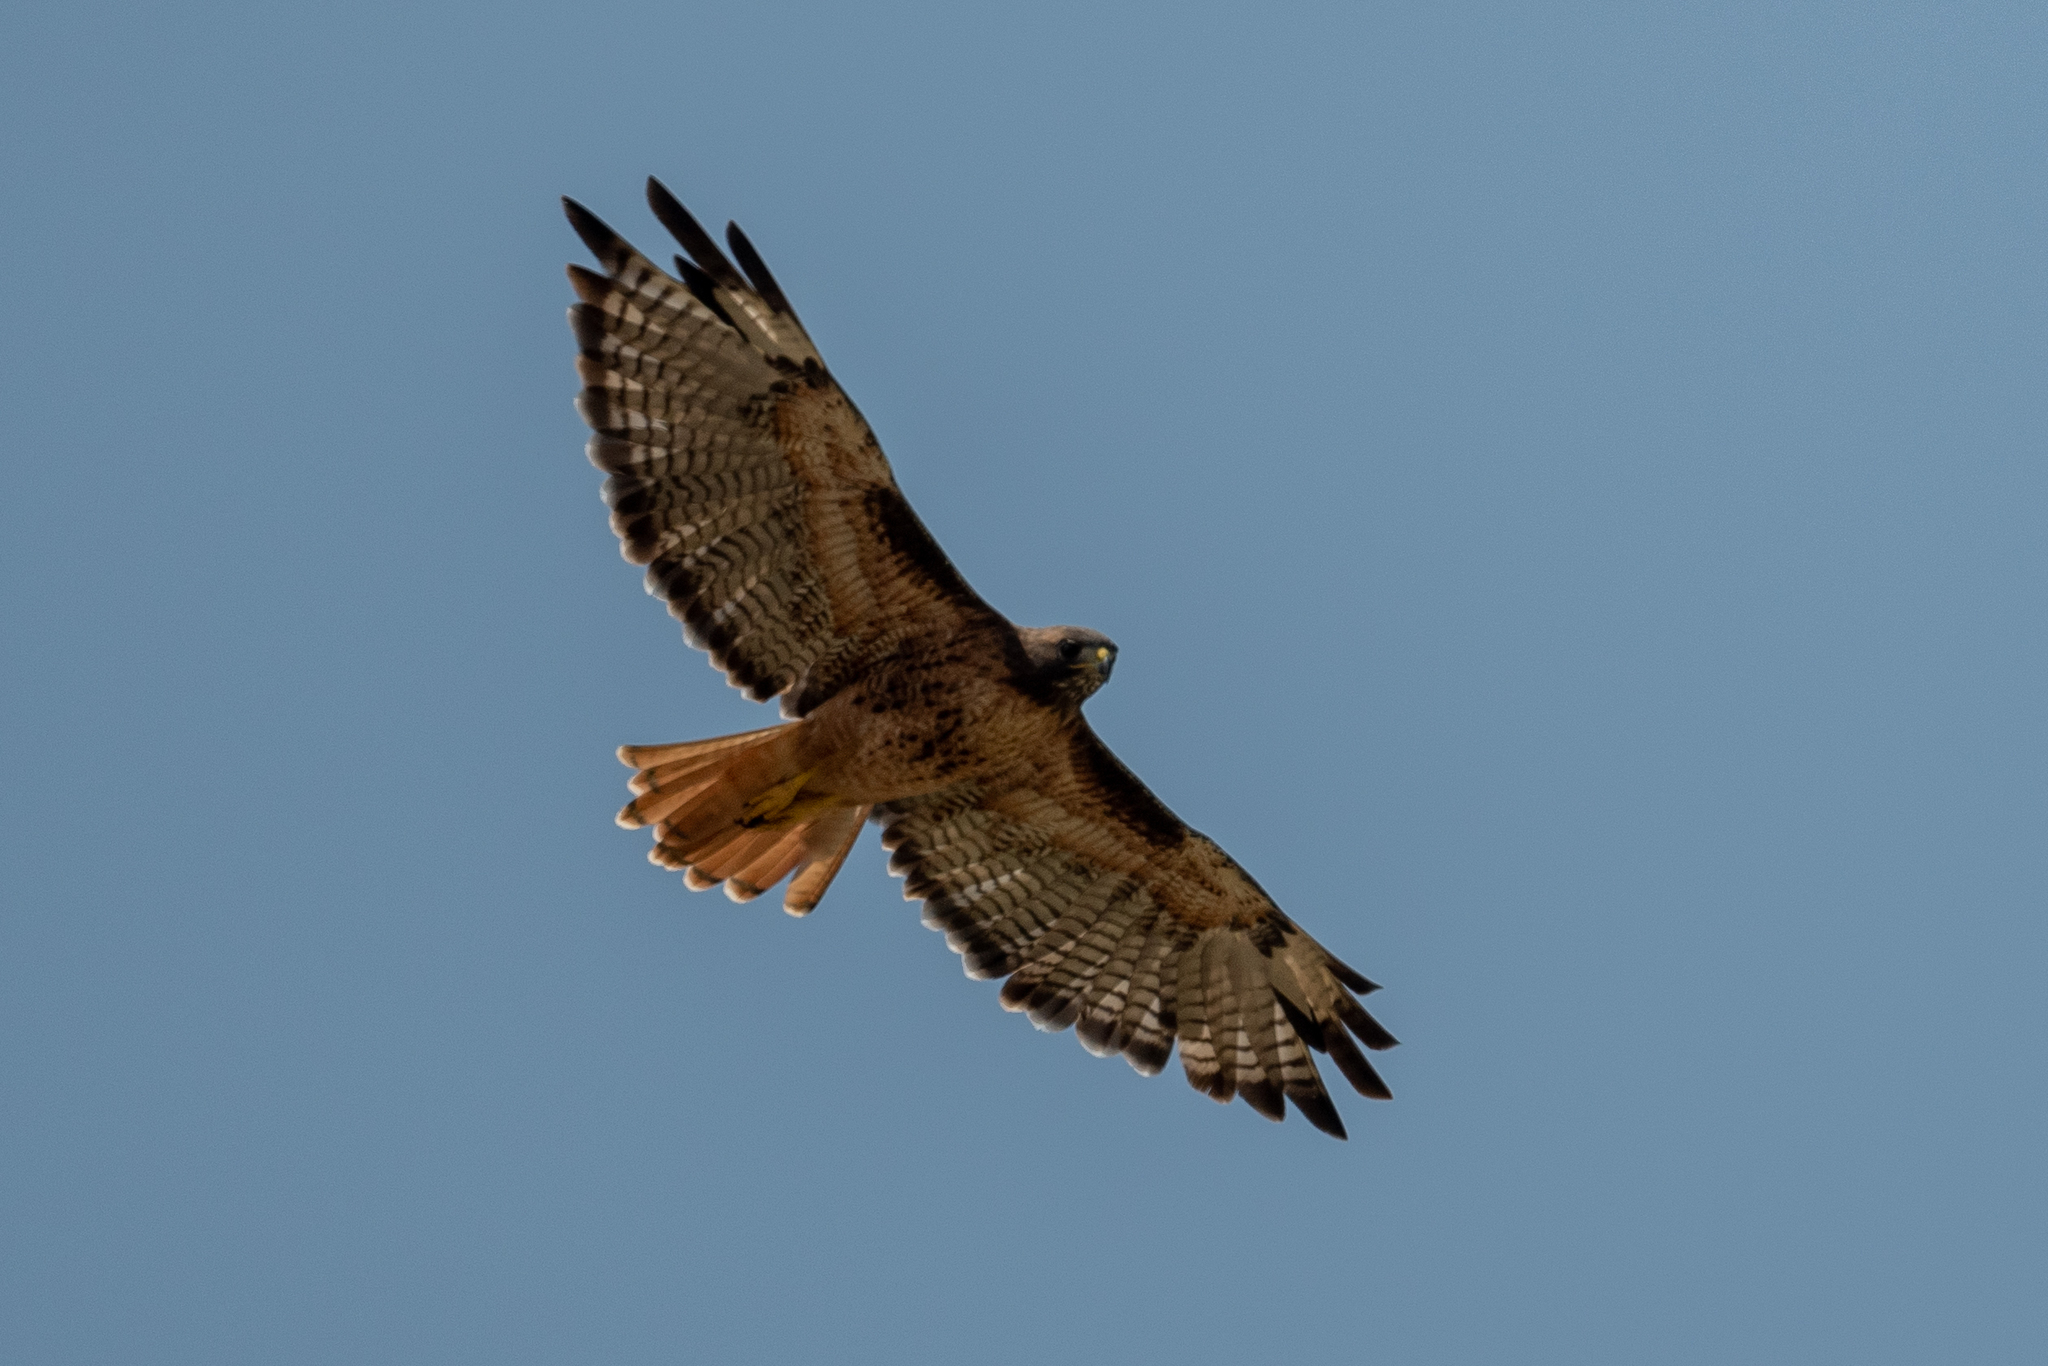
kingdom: Animalia
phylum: Chordata
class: Aves
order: Accipitriformes
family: Accipitridae
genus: Buteo
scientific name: Buteo jamaicensis
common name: Red-tailed hawk
